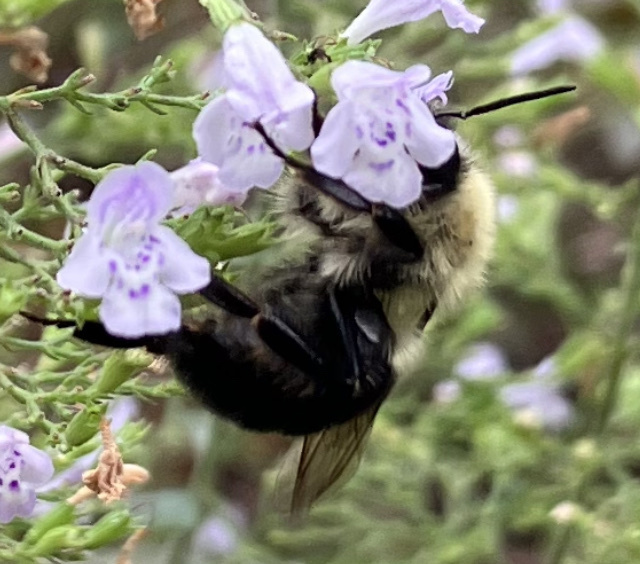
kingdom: Animalia
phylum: Arthropoda
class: Insecta
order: Hymenoptera
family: Apidae
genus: Bombus
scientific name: Bombus impatiens
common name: Common eastern bumble bee
